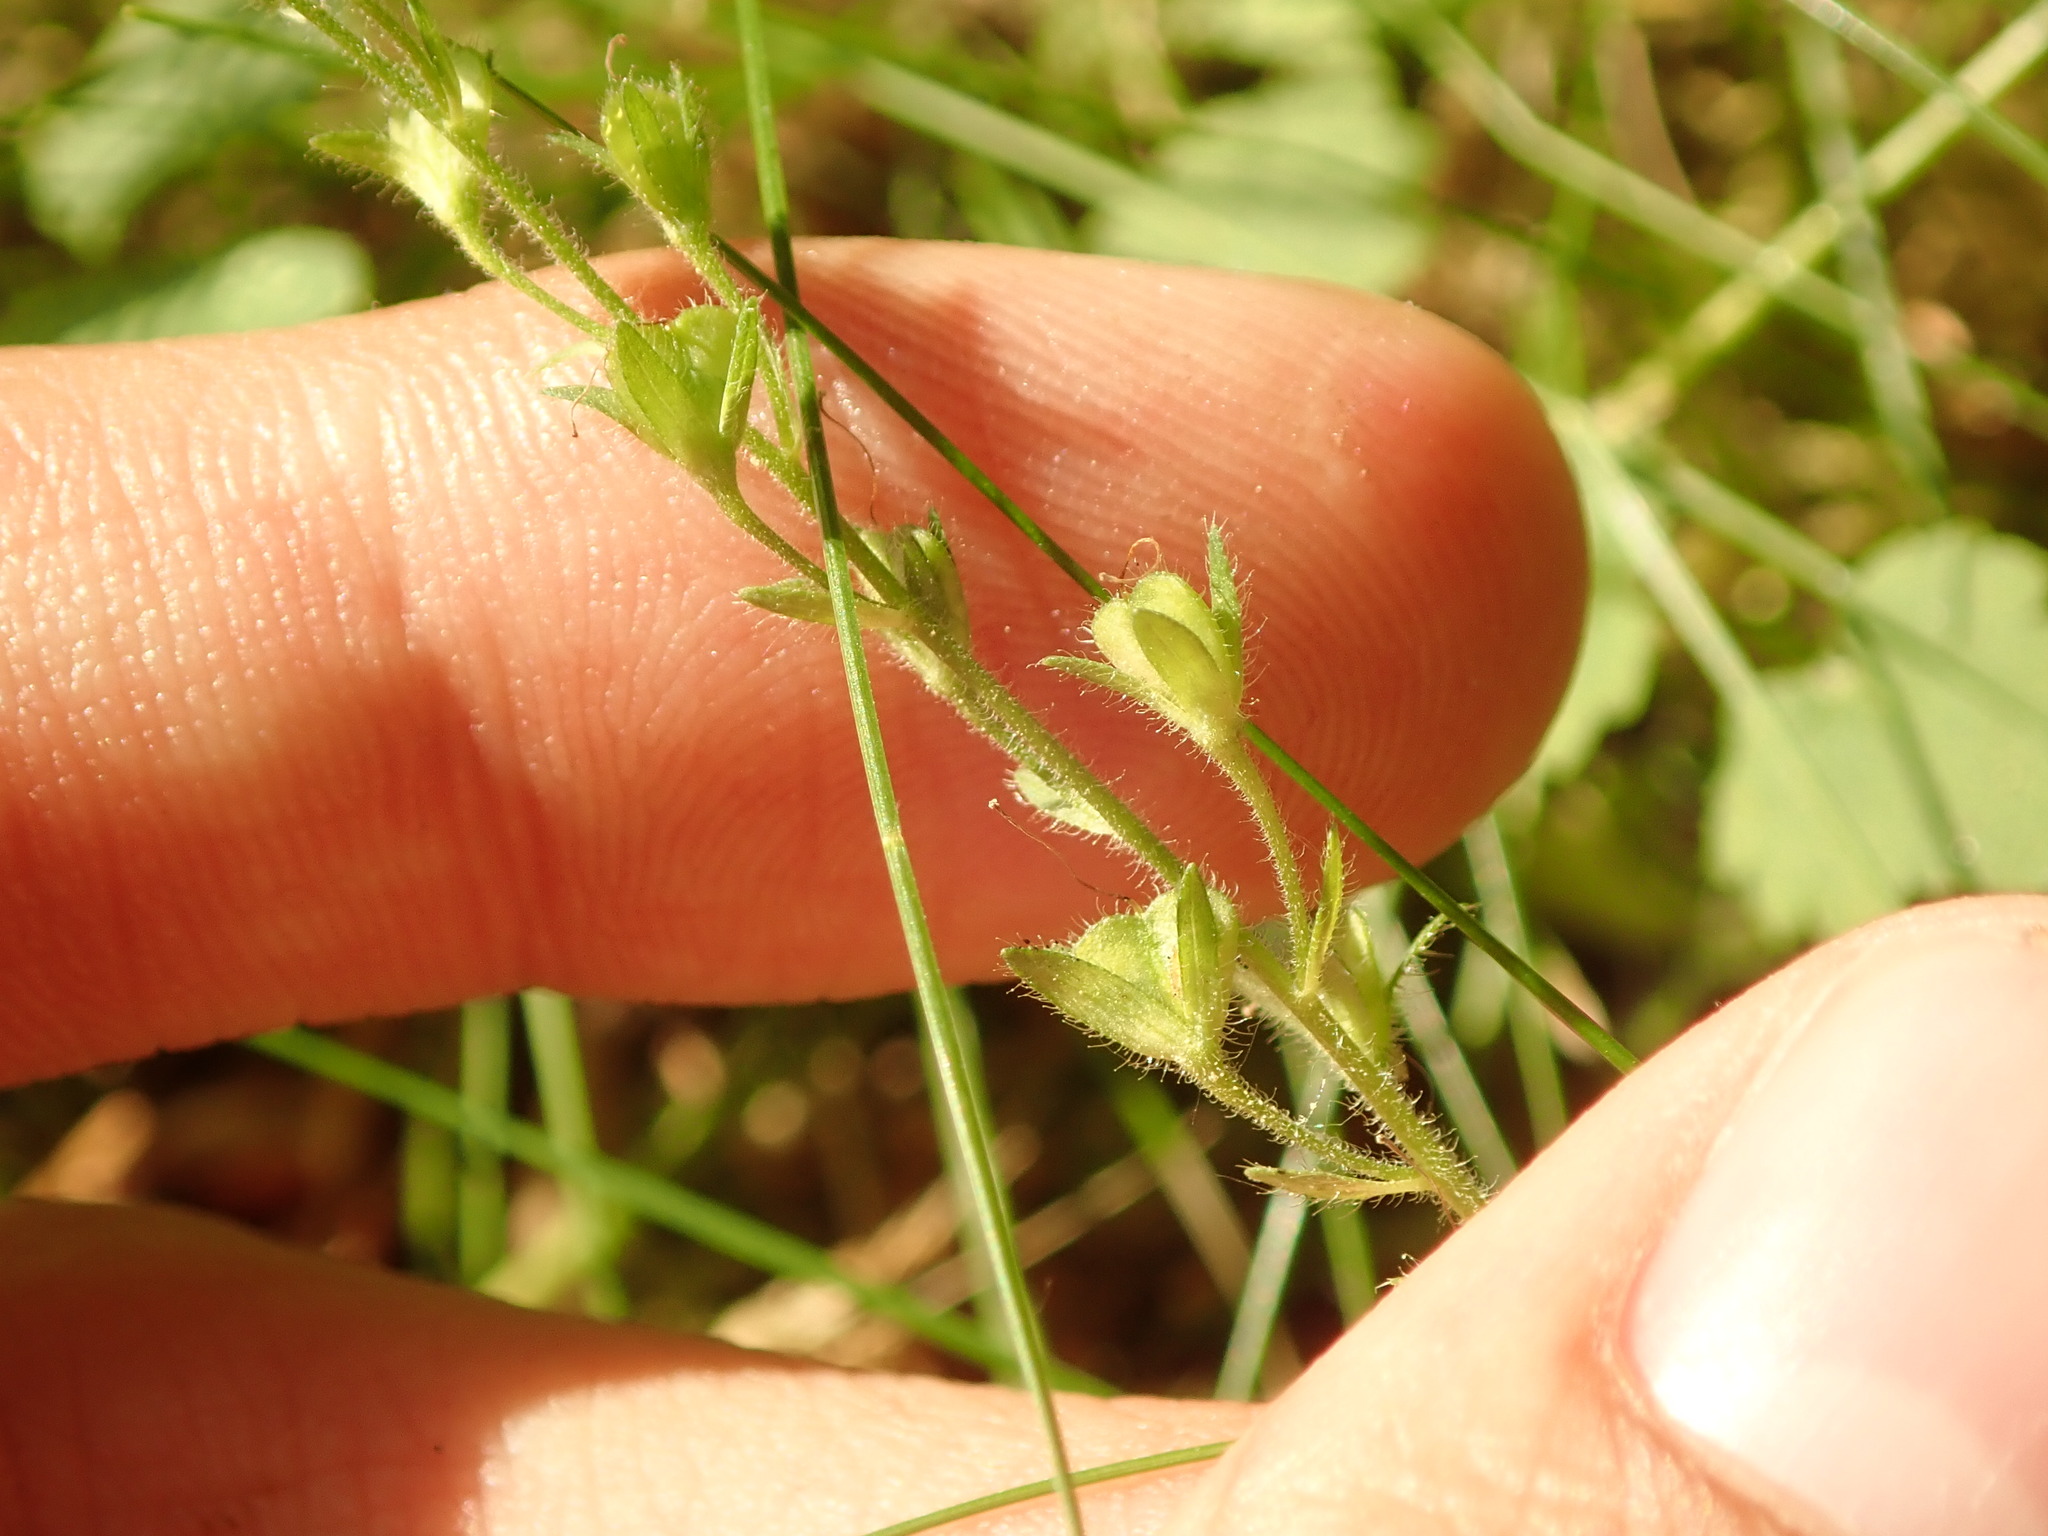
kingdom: Plantae
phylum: Tracheophyta
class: Magnoliopsida
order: Lamiales
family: Plantaginaceae
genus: Veronica
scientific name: Veronica chamaedrys
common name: Germander speedwell
